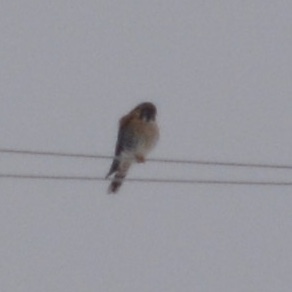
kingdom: Animalia
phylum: Chordata
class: Aves
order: Falconiformes
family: Falconidae
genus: Falco
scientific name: Falco sparverius
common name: American kestrel
